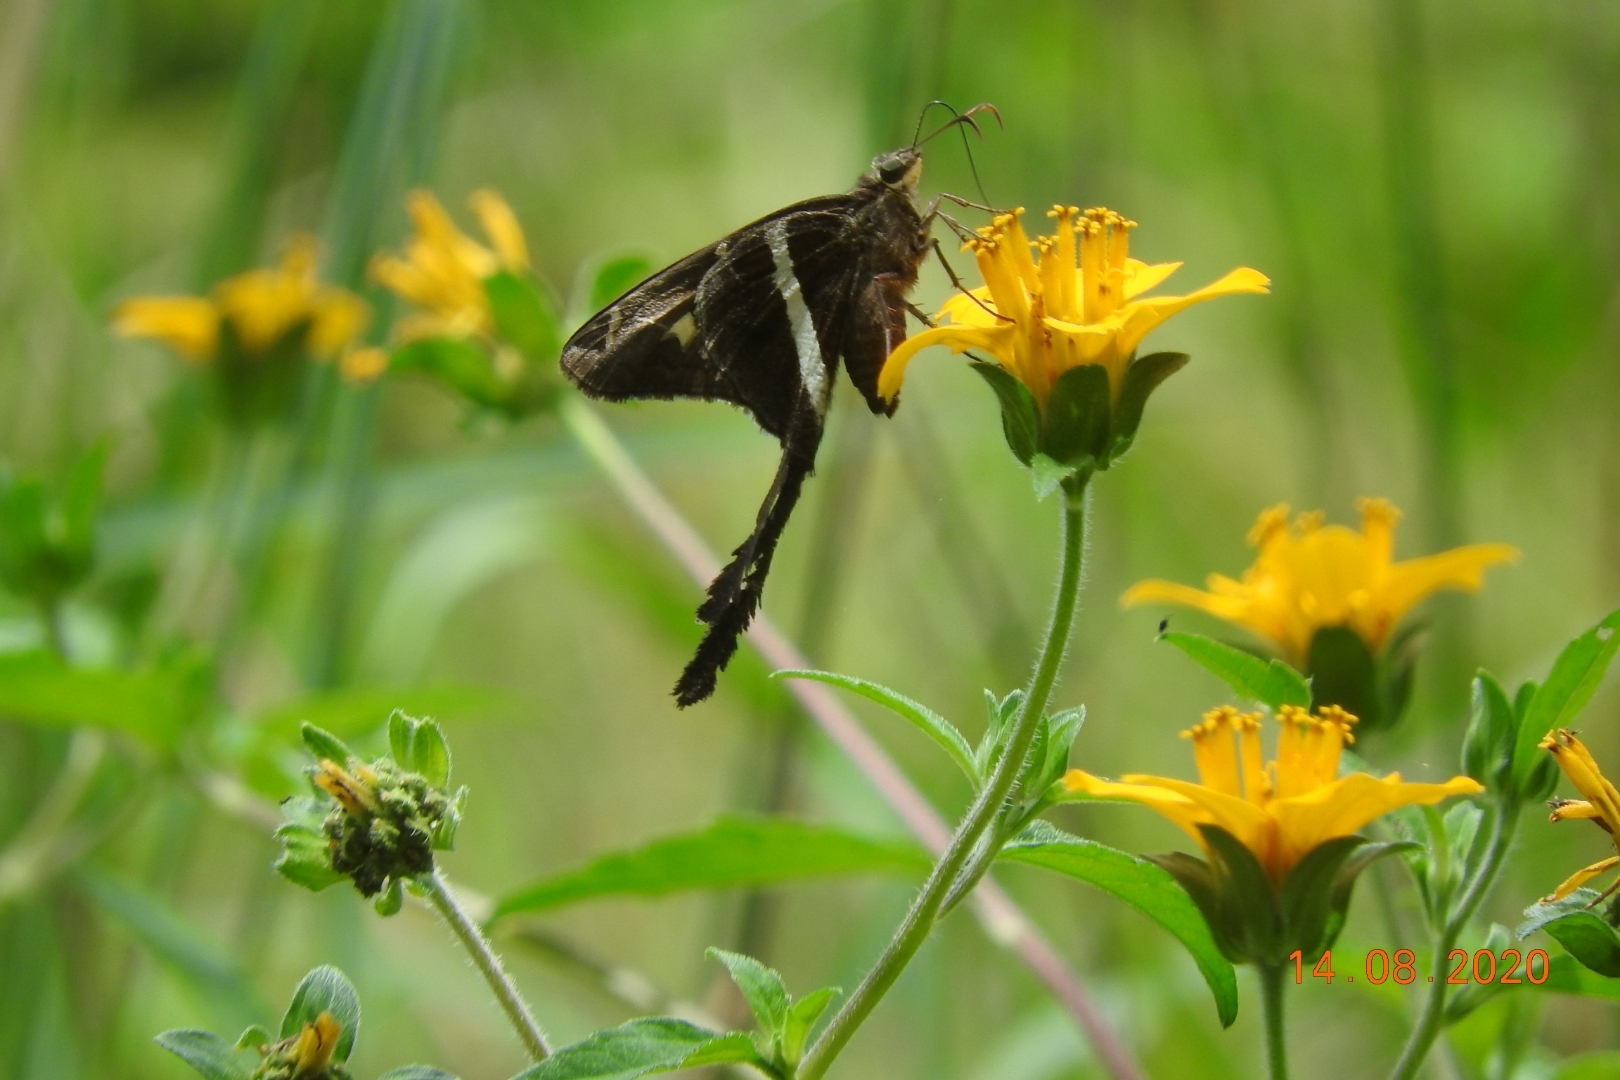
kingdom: Animalia
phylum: Arthropoda
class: Insecta
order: Lepidoptera
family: Hesperiidae
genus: Chioides
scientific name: Chioides catillus
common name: Silverbanded skipper
